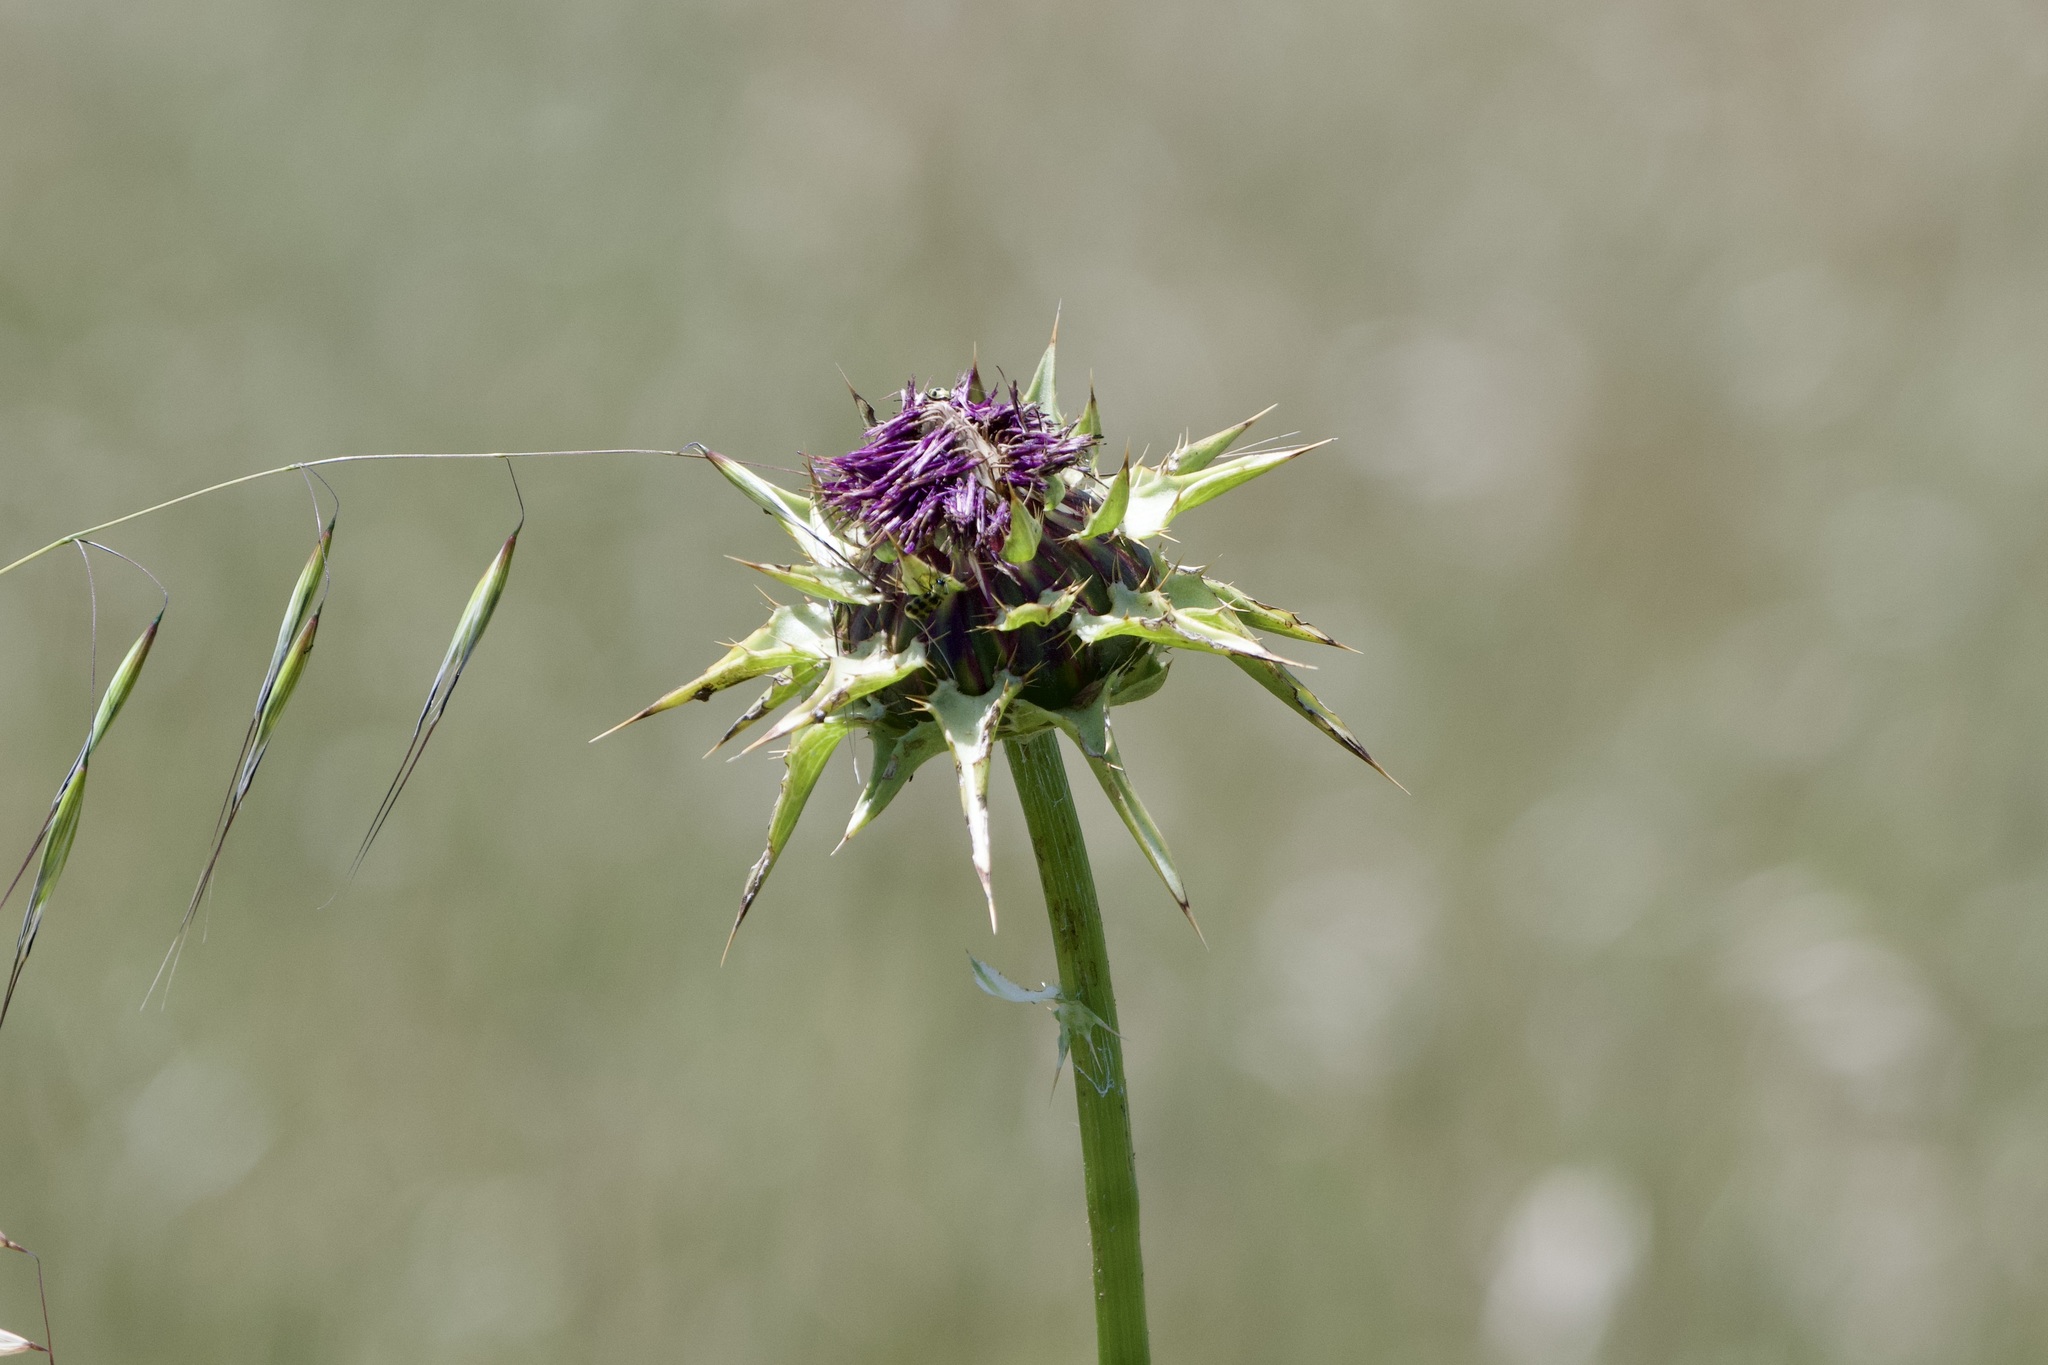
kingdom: Plantae
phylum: Tracheophyta
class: Magnoliopsida
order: Asterales
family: Asteraceae
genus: Silybum
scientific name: Silybum marianum
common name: Milk thistle
